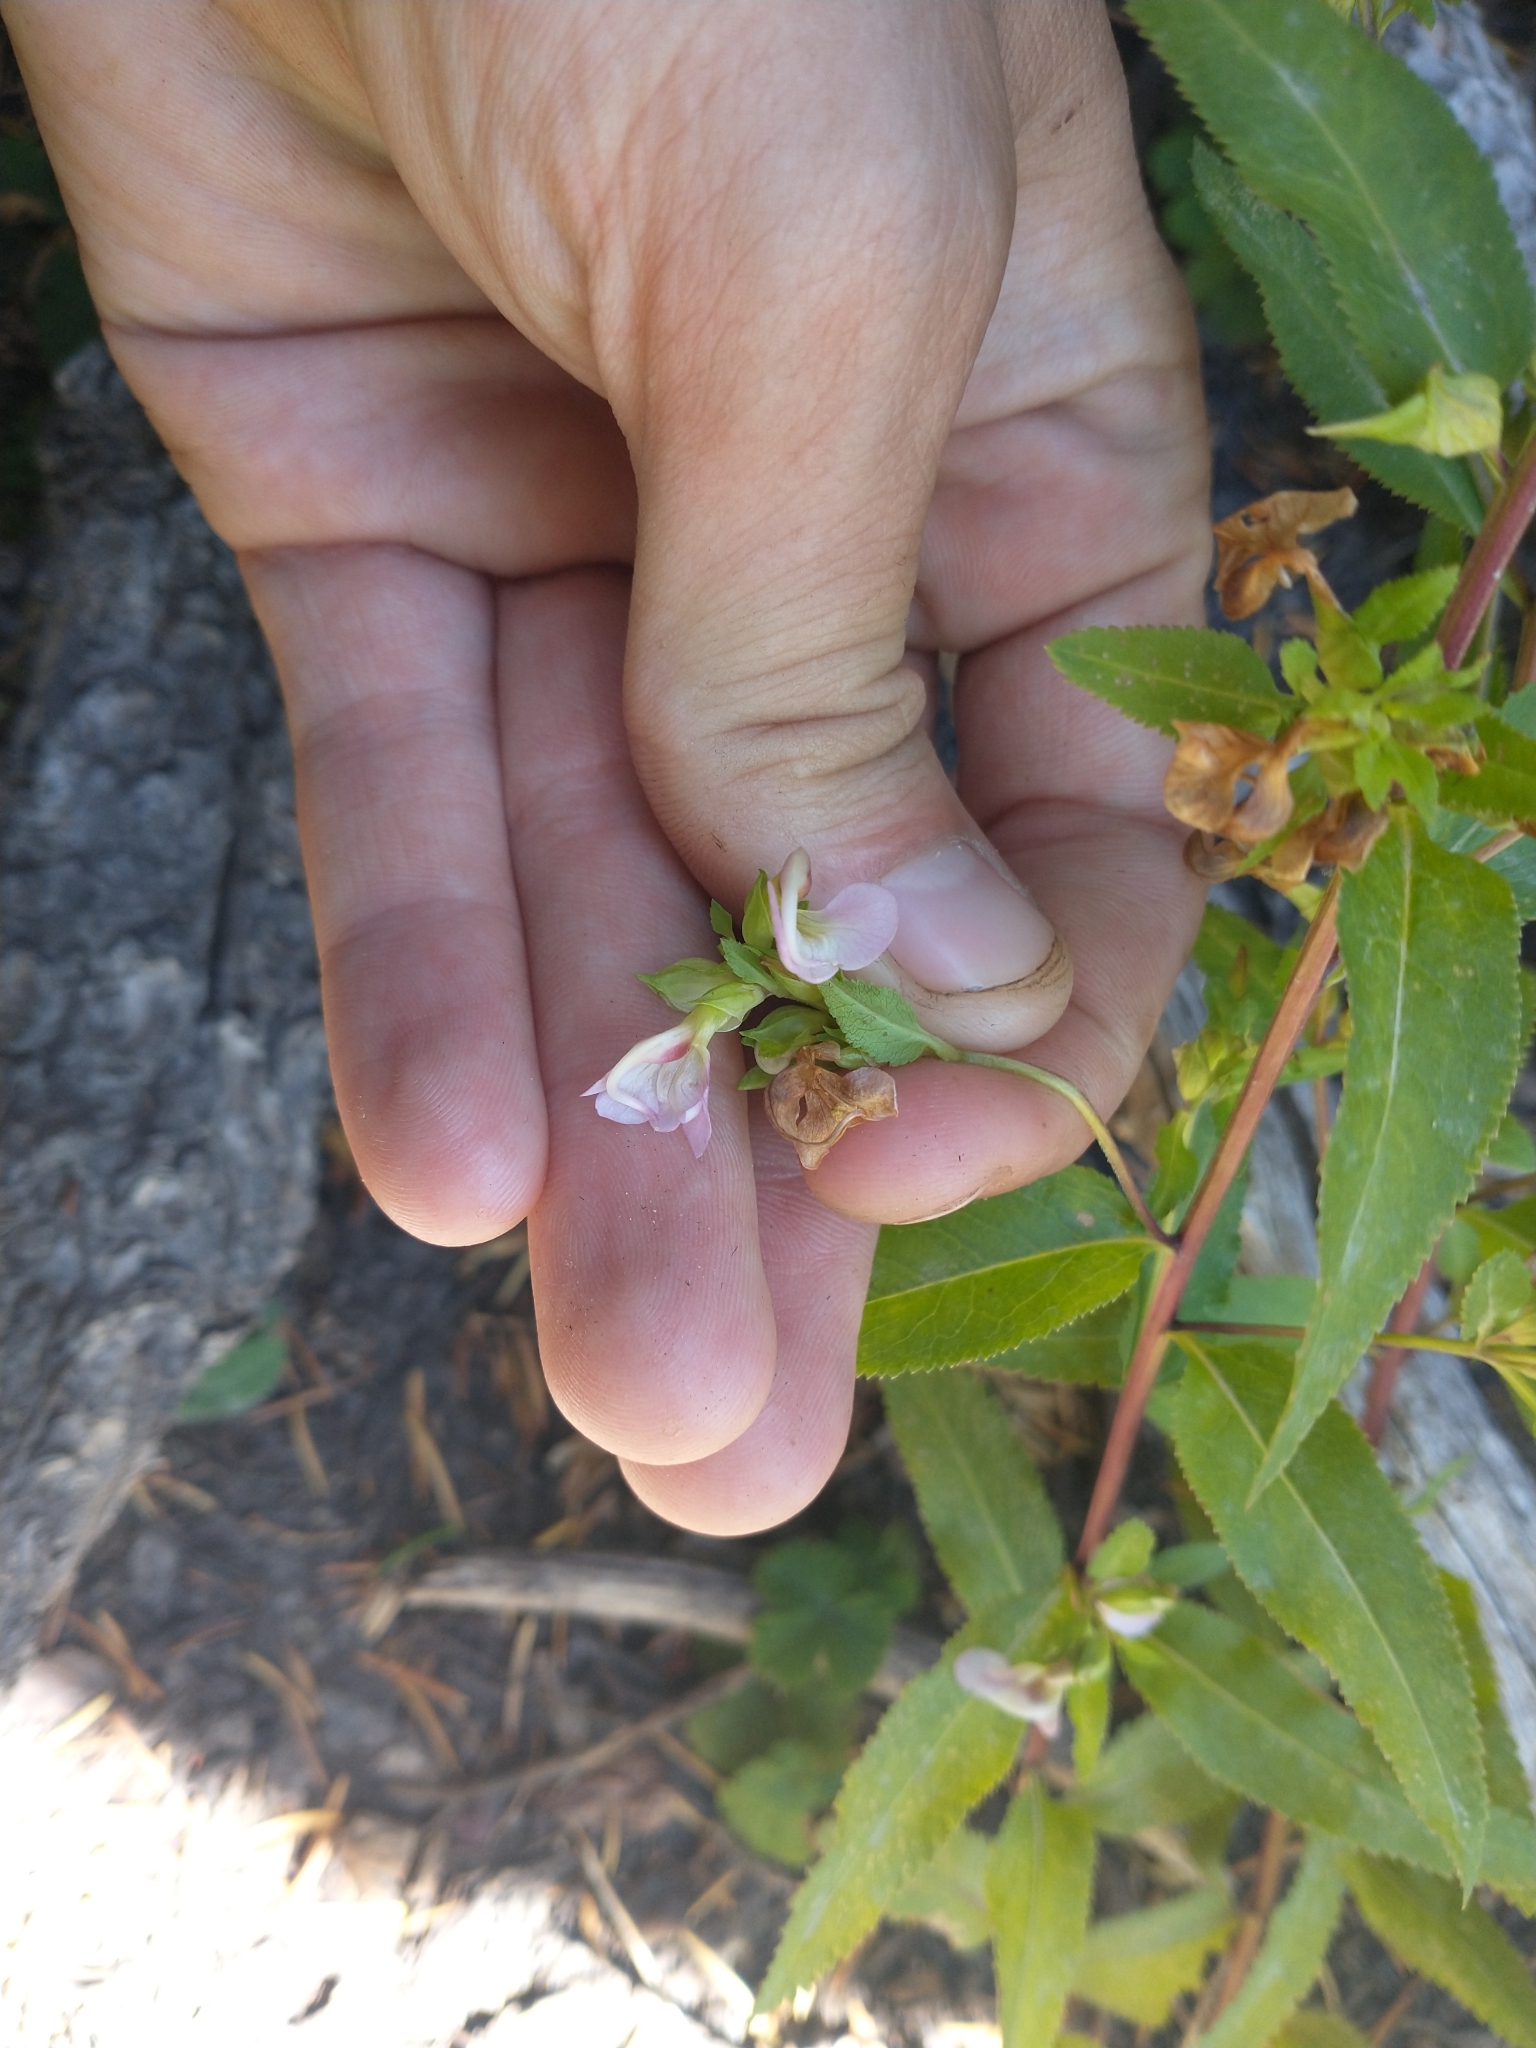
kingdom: Plantae
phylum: Tracheophyta
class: Magnoliopsida
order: Lamiales
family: Orobanchaceae
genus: Pedicularis
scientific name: Pedicularis racemosa
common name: Leafy lousewort
